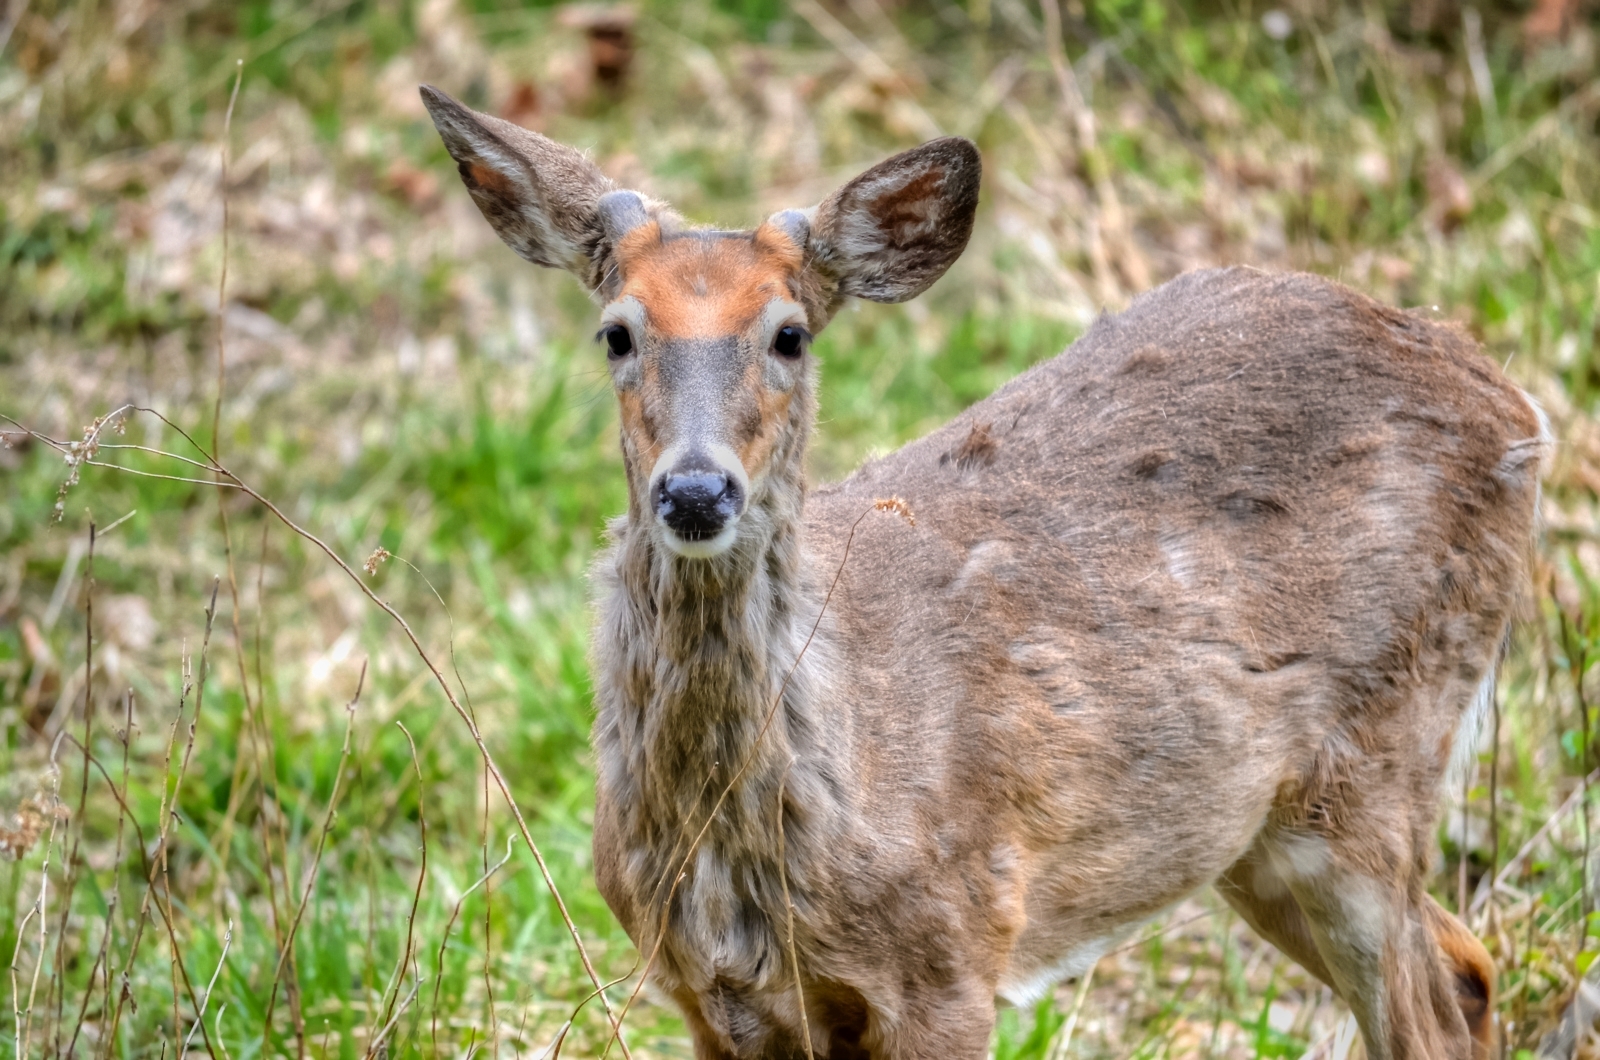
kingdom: Animalia
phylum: Chordata
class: Mammalia
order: Artiodactyla
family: Cervidae
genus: Odocoileus
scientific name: Odocoileus virginianus
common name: White-tailed deer
